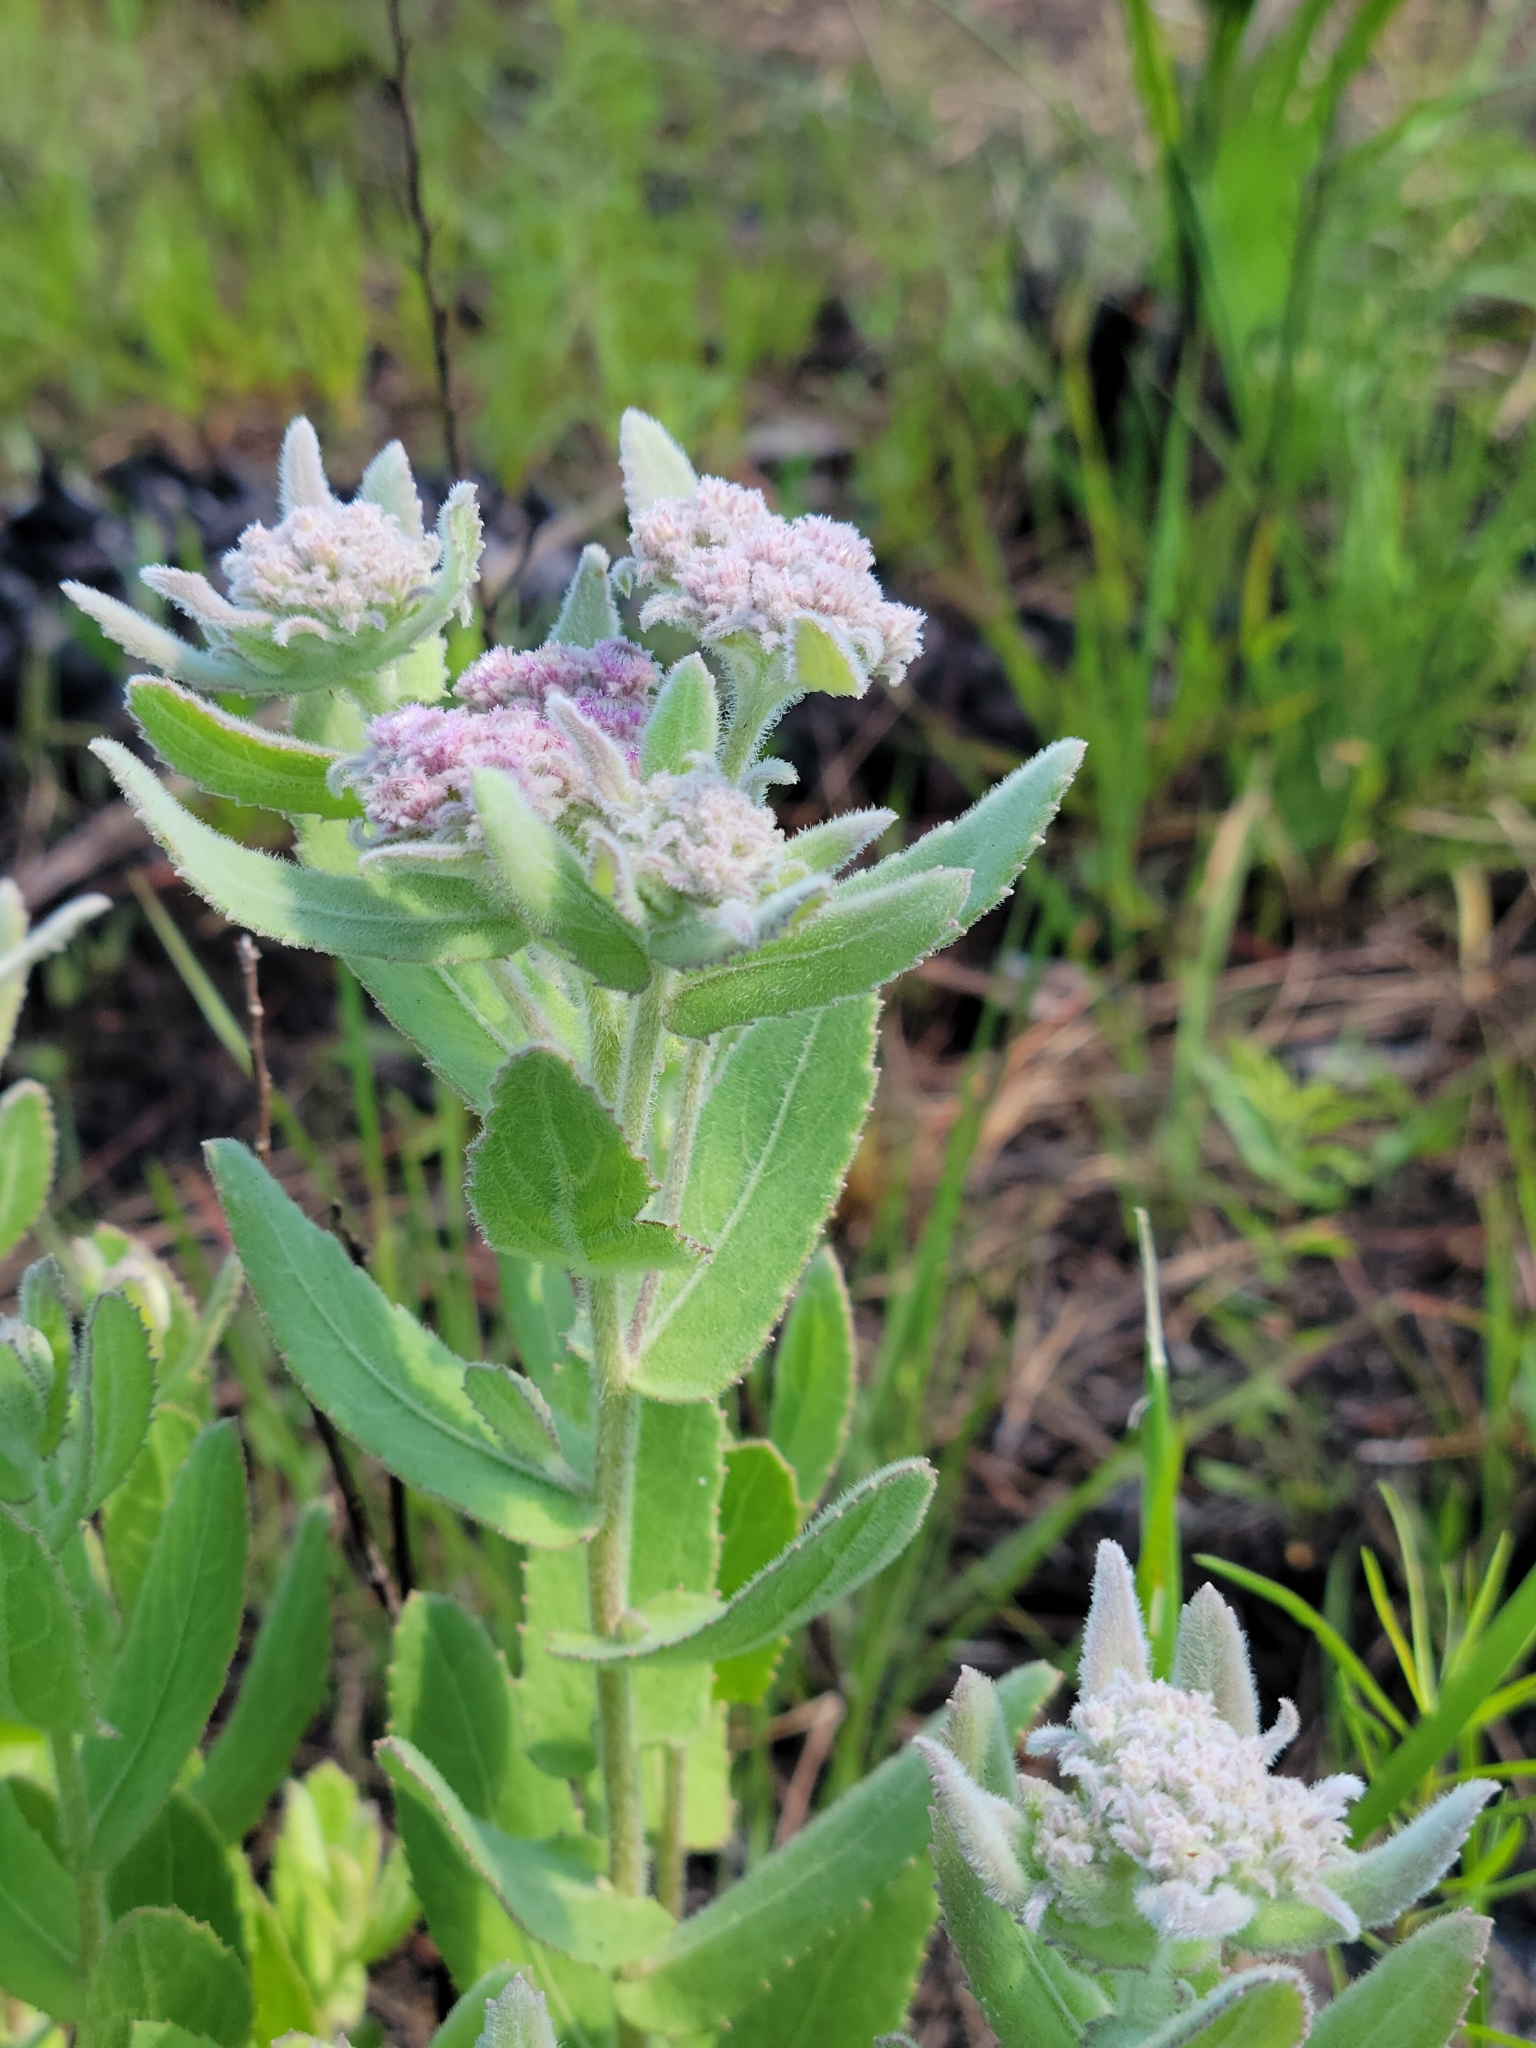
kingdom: Plantae
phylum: Tracheophyta
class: Magnoliopsida
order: Asterales
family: Asteraceae
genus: Pluchea
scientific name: Pluchea baccharis
